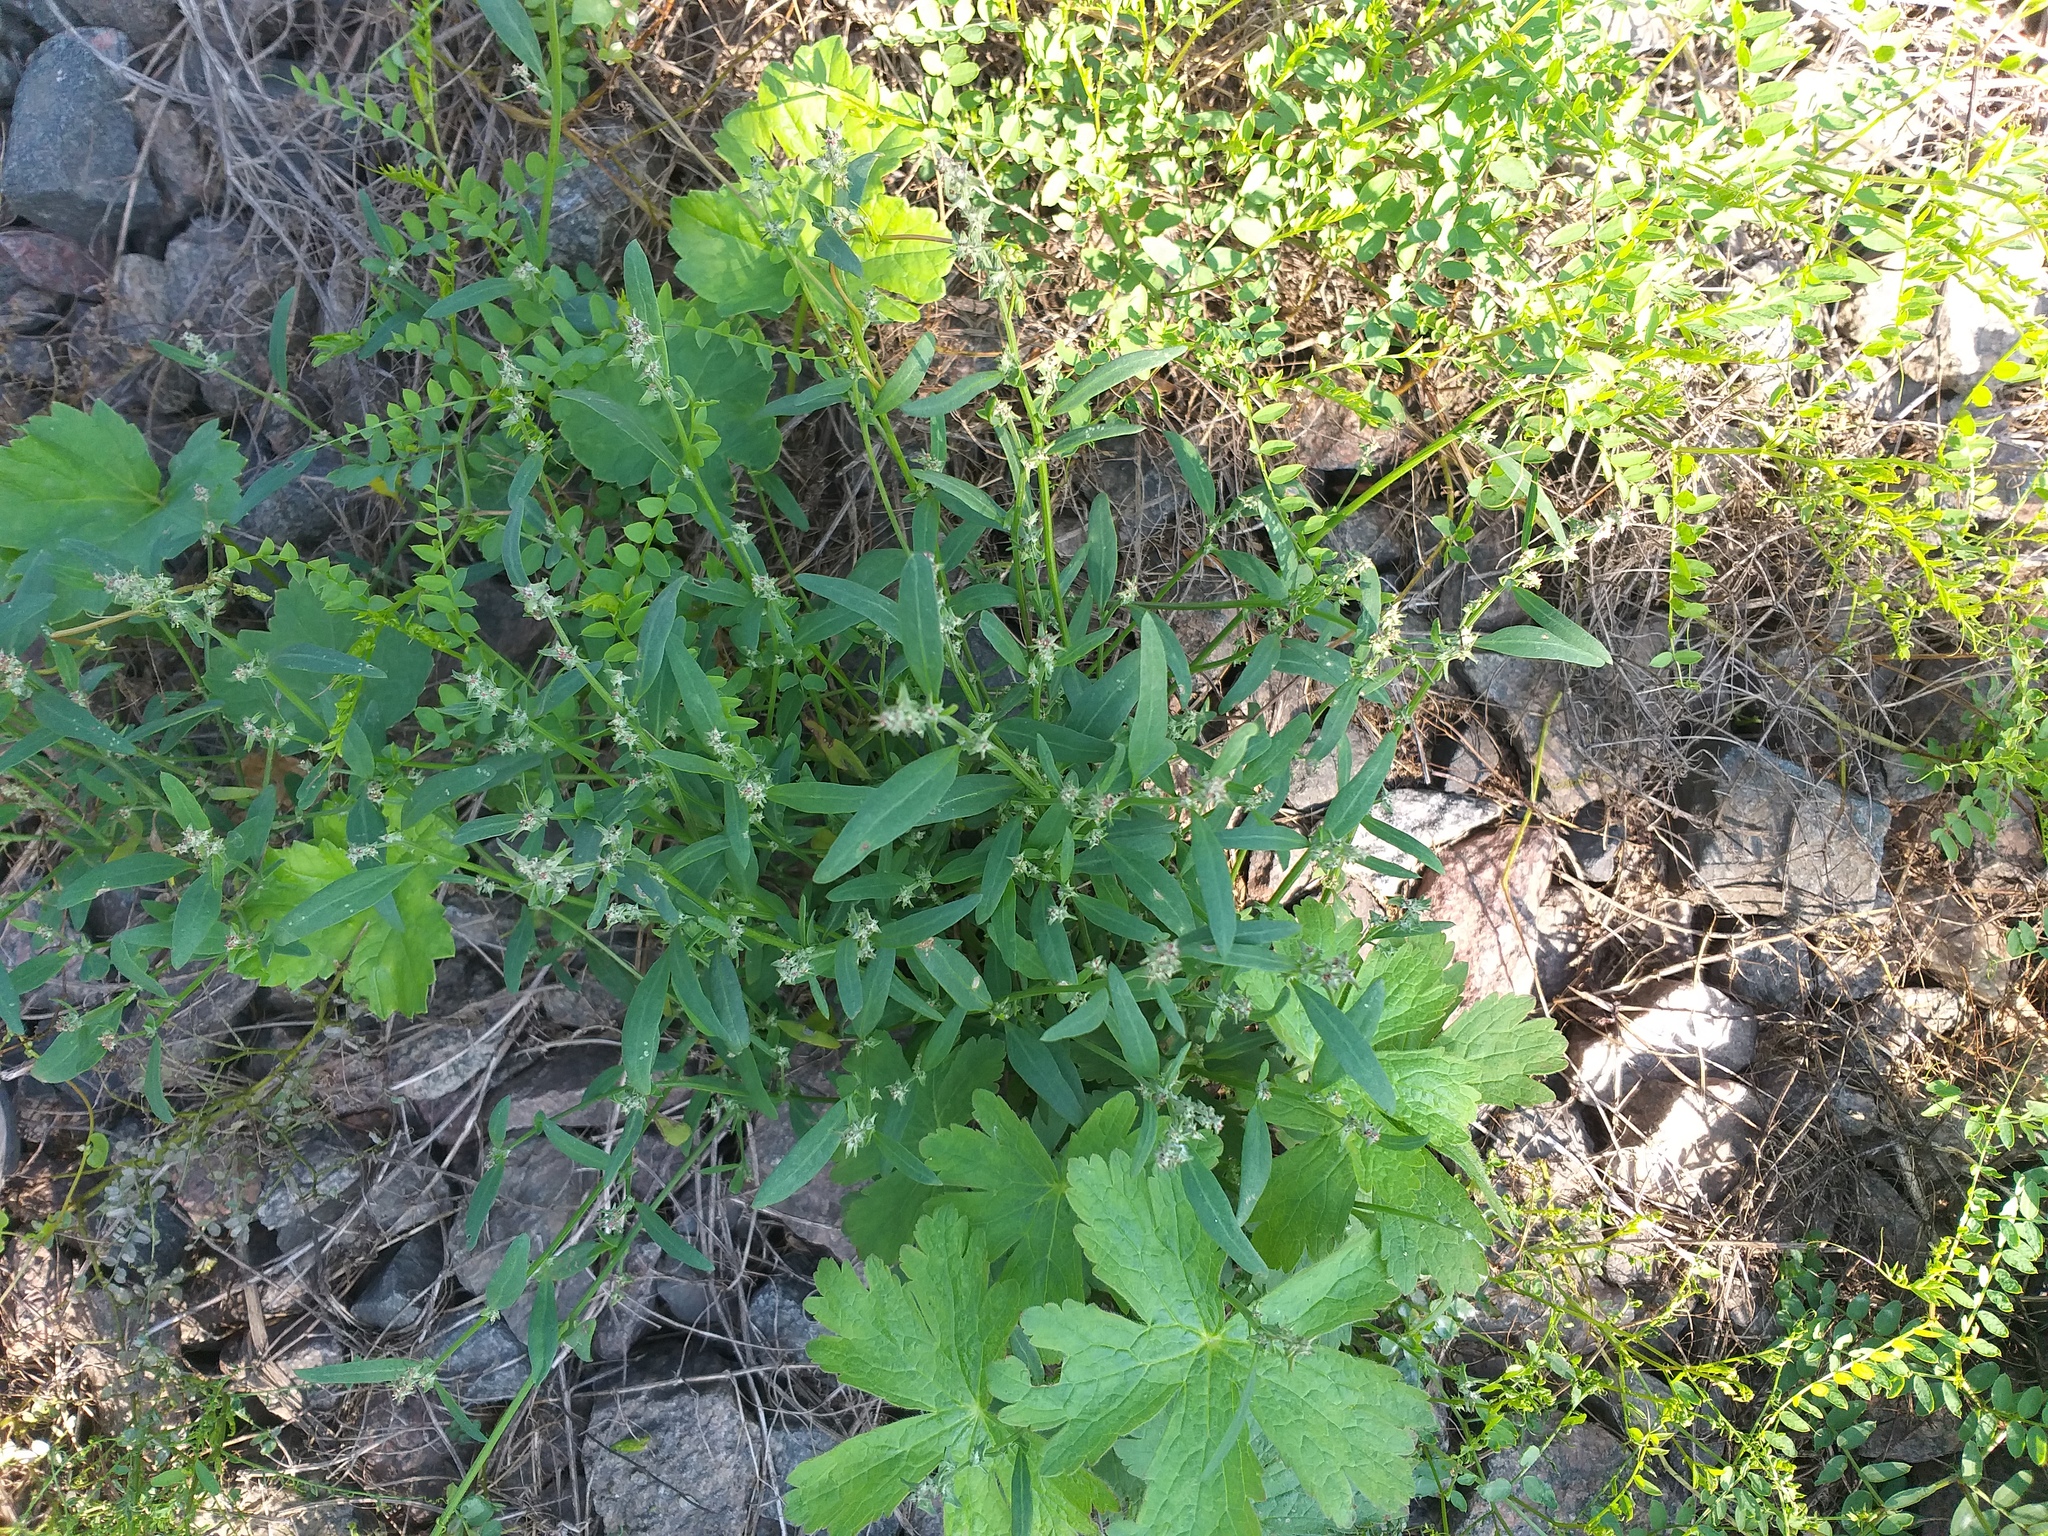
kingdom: Plantae
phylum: Tracheophyta
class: Magnoliopsida
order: Caryophyllales
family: Amaranthaceae
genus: Atriplex
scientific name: Atriplex patula
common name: Common orache
